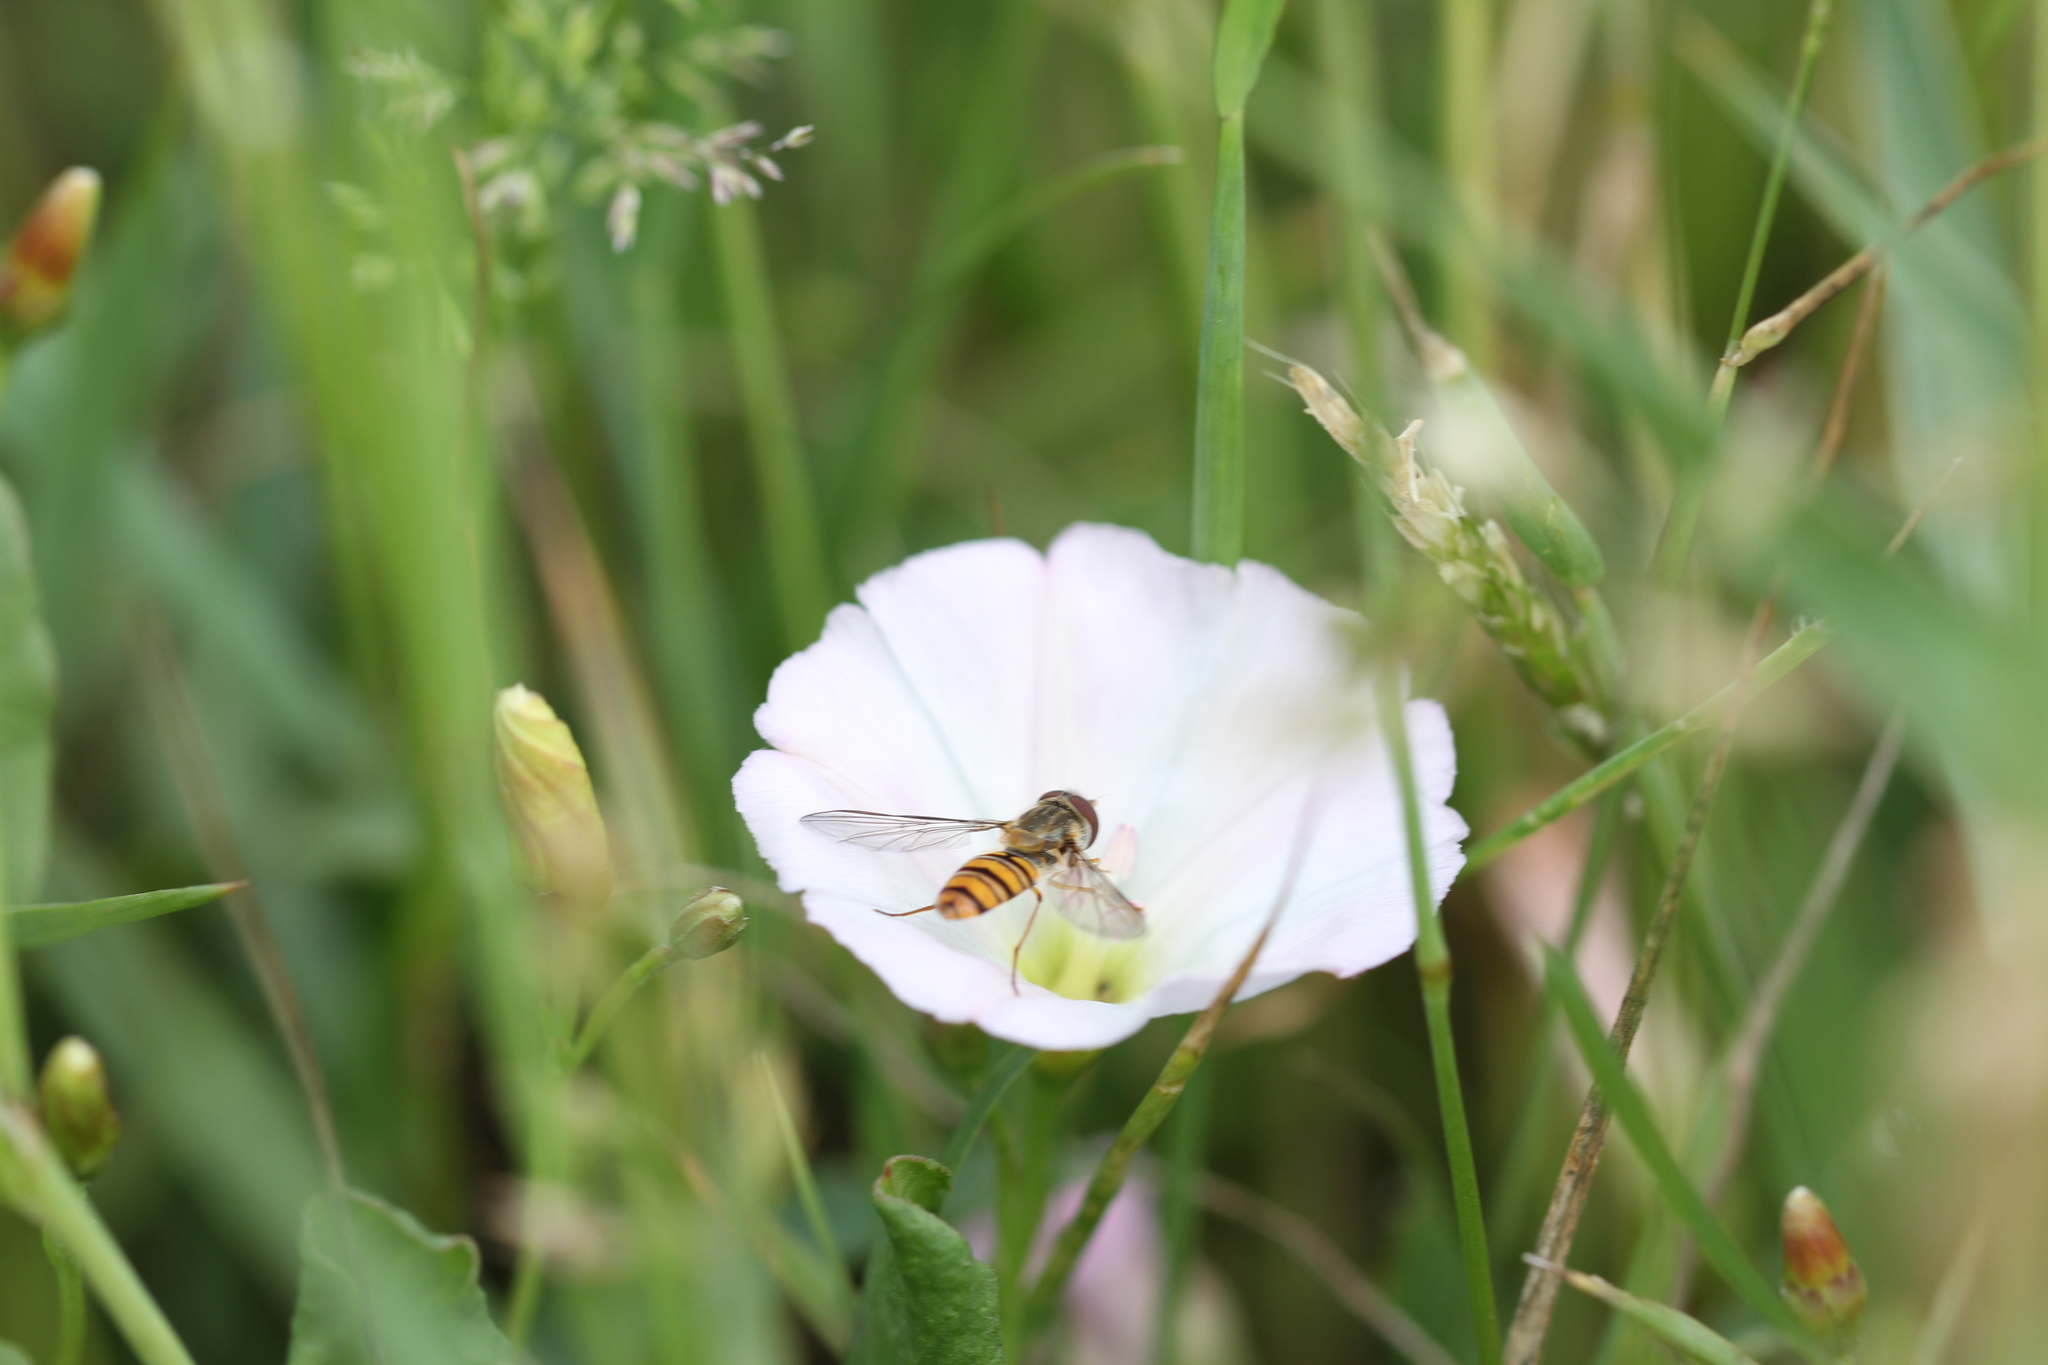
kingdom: Animalia
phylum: Arthropoda
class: Insecta
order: Diptera
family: Syrphidae
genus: Episyrphus
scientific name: Episyrphus balteatus
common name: Marmalade hoverfly
